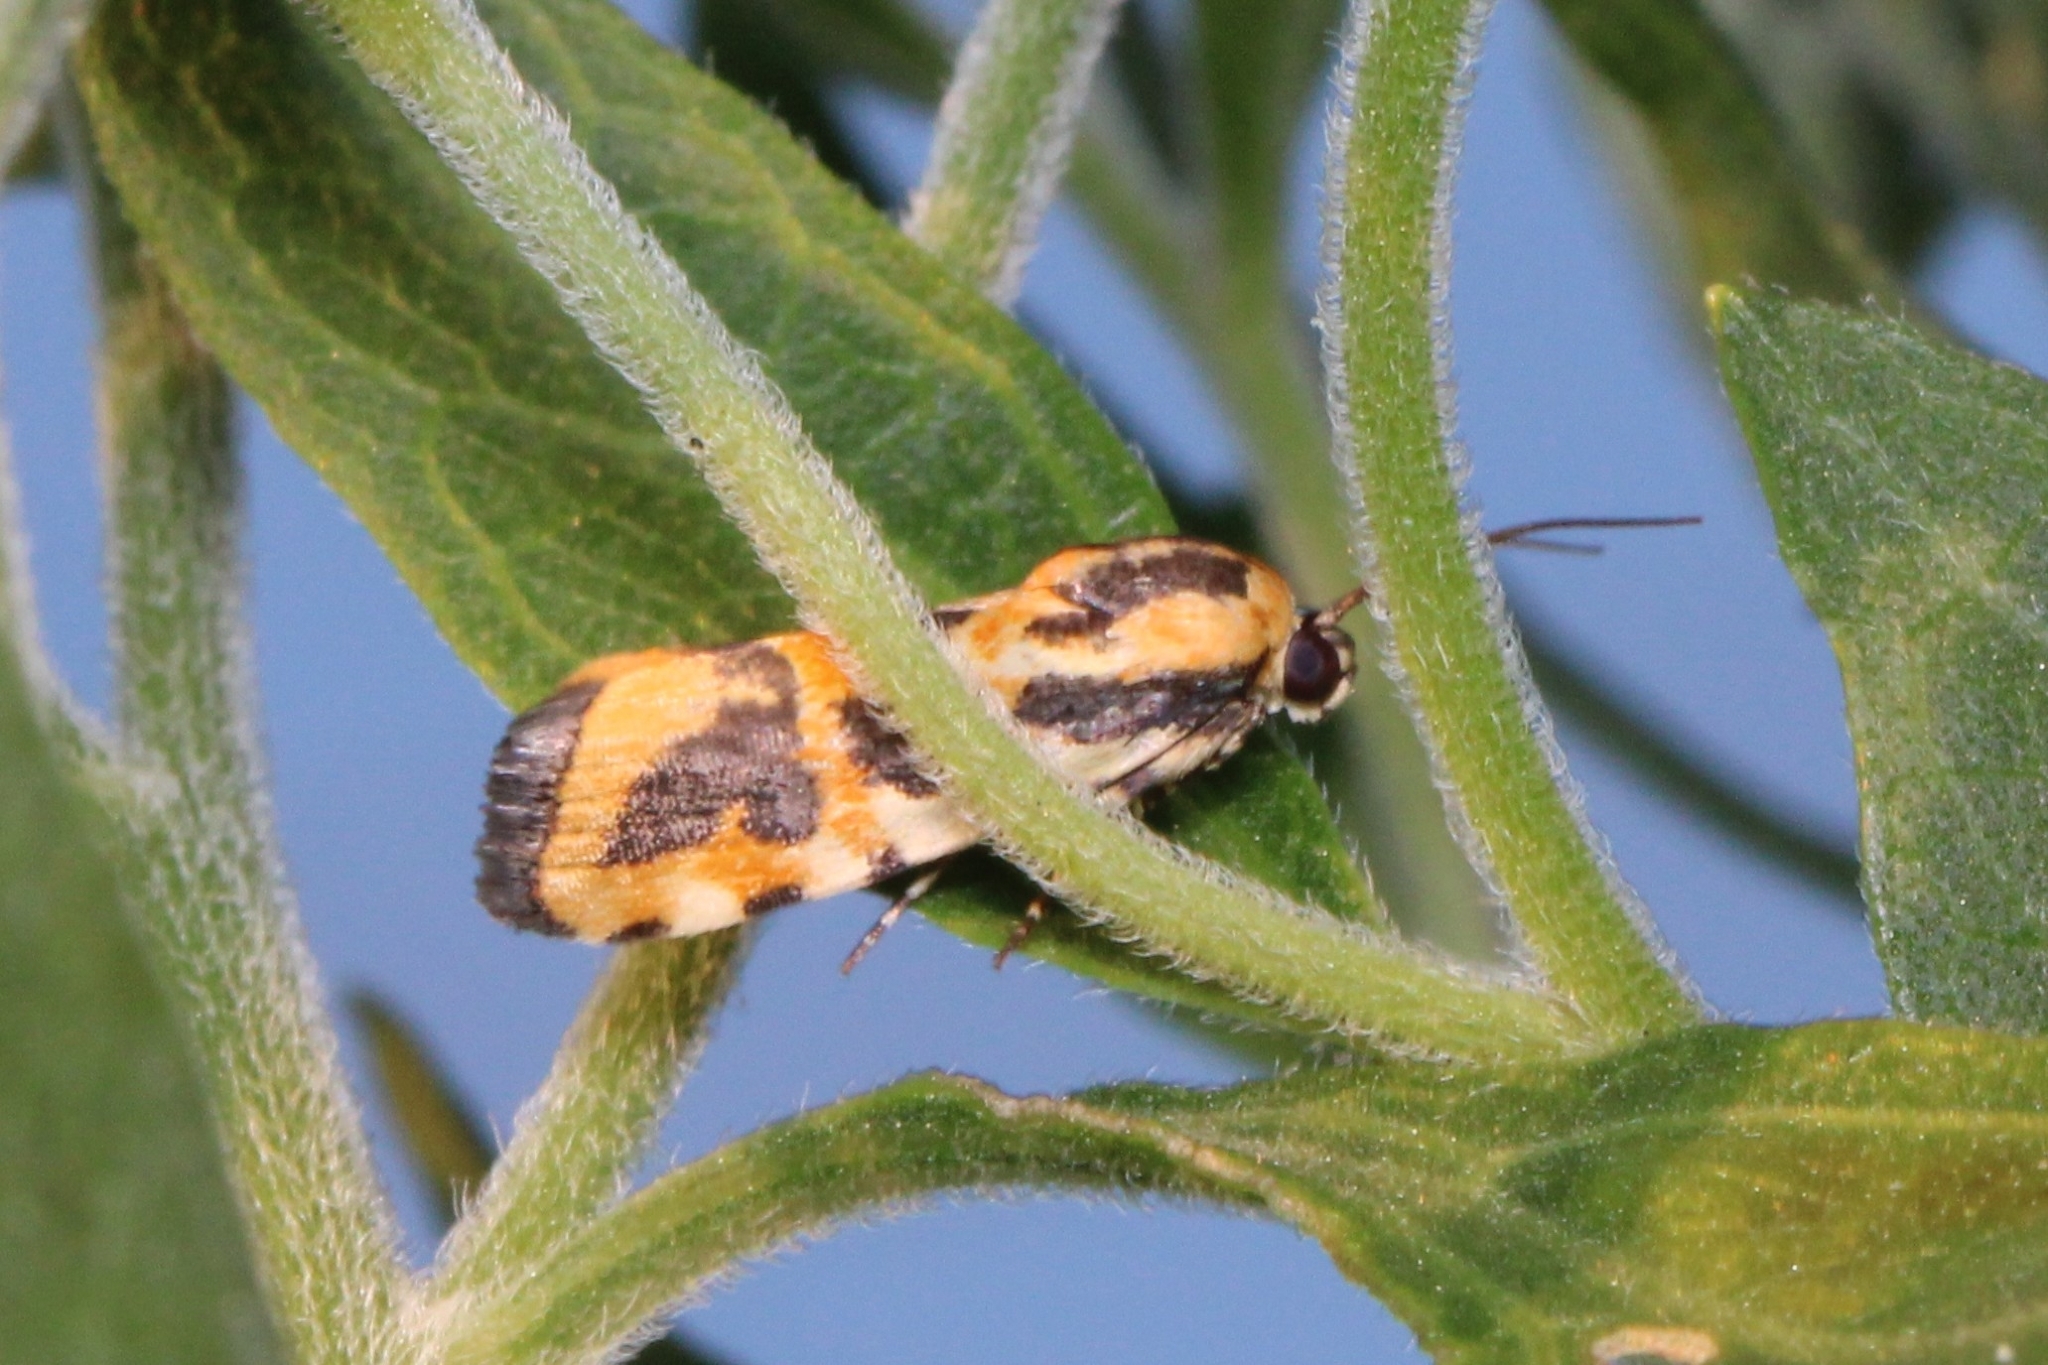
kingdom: Animalia
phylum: Arthropoda
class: Insecta
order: Lepidoptera
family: Noctuidae
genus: Acontia
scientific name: Acontia leo
